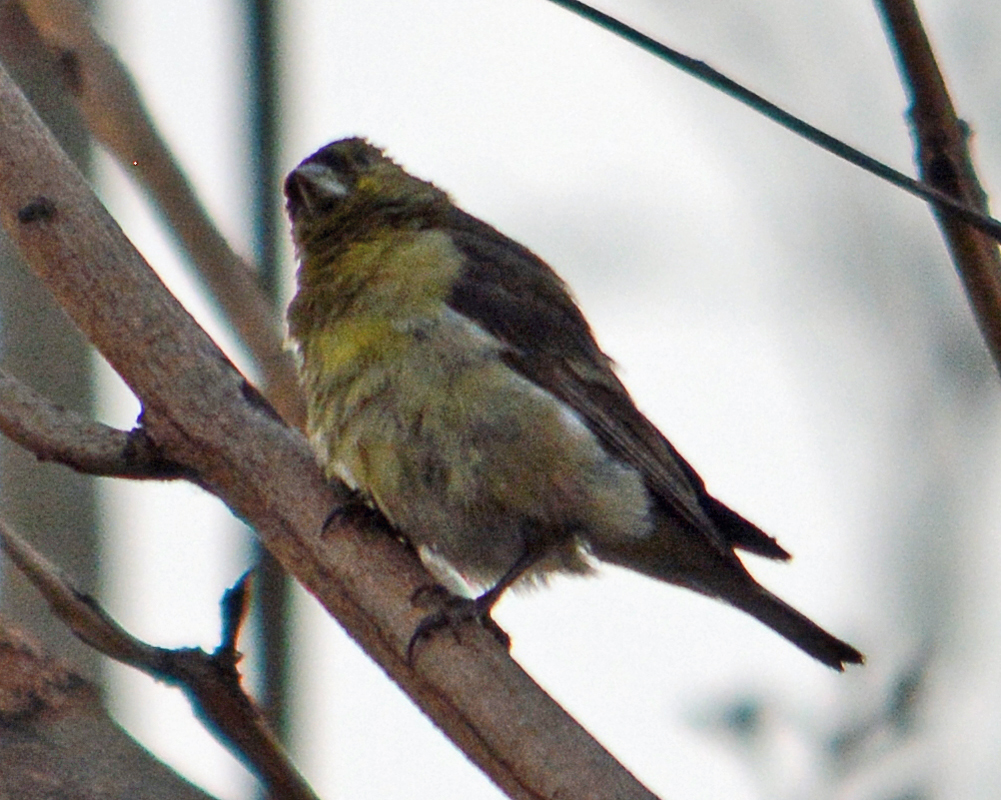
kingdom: Animalia
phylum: Chordata
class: Aves
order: Passeriformes
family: Fringillidae
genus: Spinus
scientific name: Spinus psaltria
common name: Lesser goldfinch
